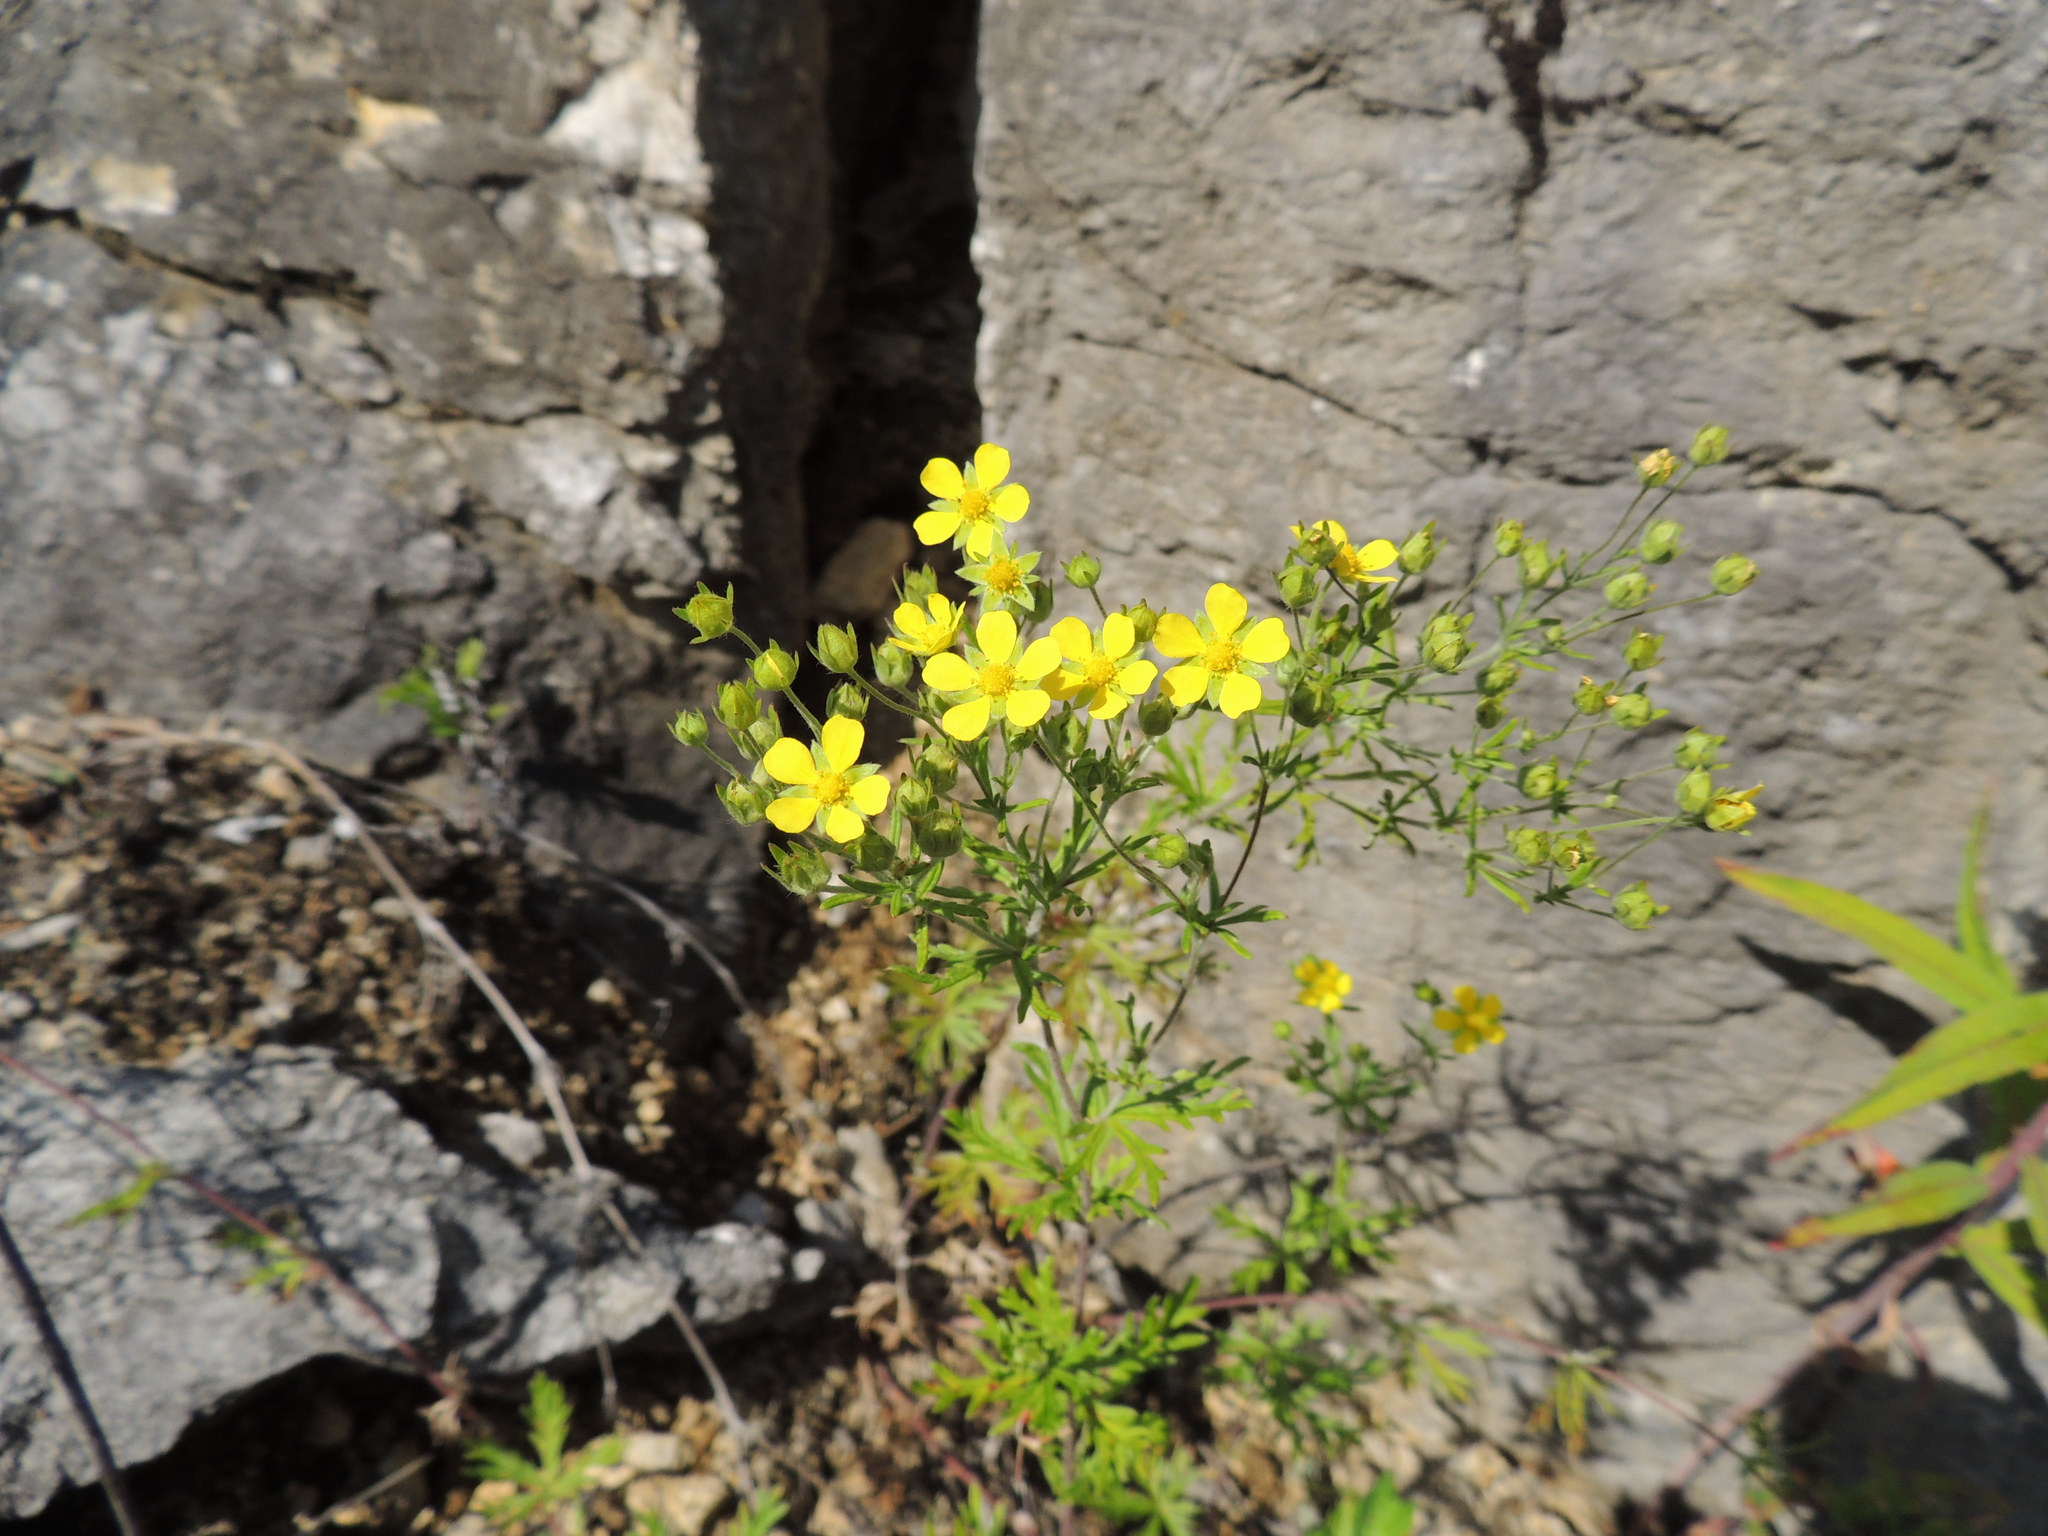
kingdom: Plantae
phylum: Tracheophyta
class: Magnoliopsida
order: Rosales
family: Rosaceae
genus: Potentilla
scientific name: Potentilla argentea
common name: Hoary cinquefoil
